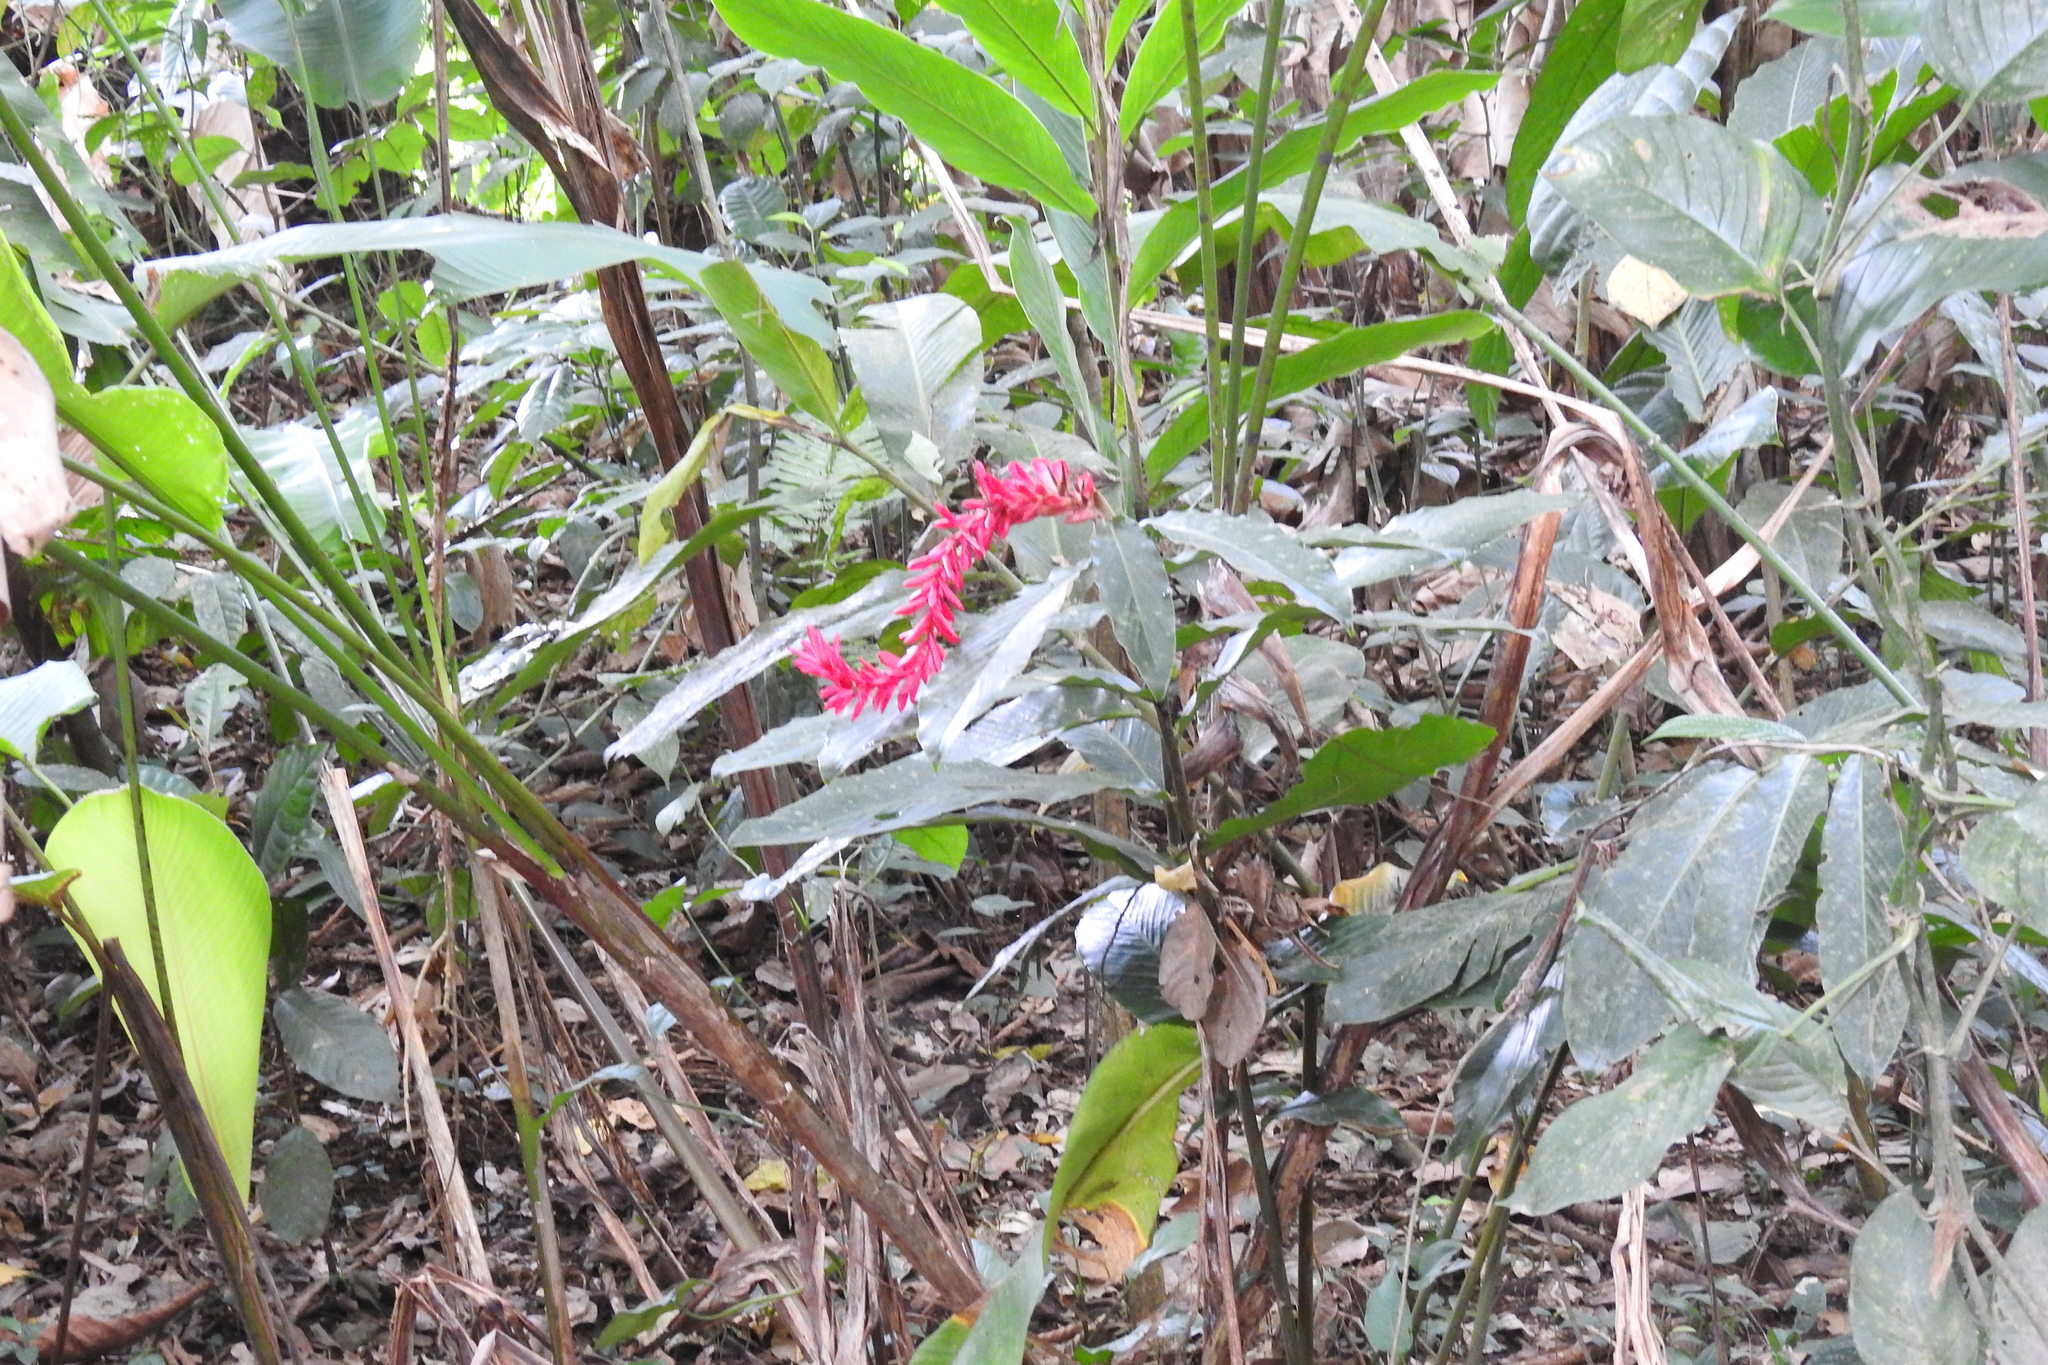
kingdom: Plantae
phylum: Tracheophyta
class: Liliopsida
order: Zingiberales
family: Zingiberaceae
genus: Alpinia
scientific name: Alpinia purpurata
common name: Red ginger
